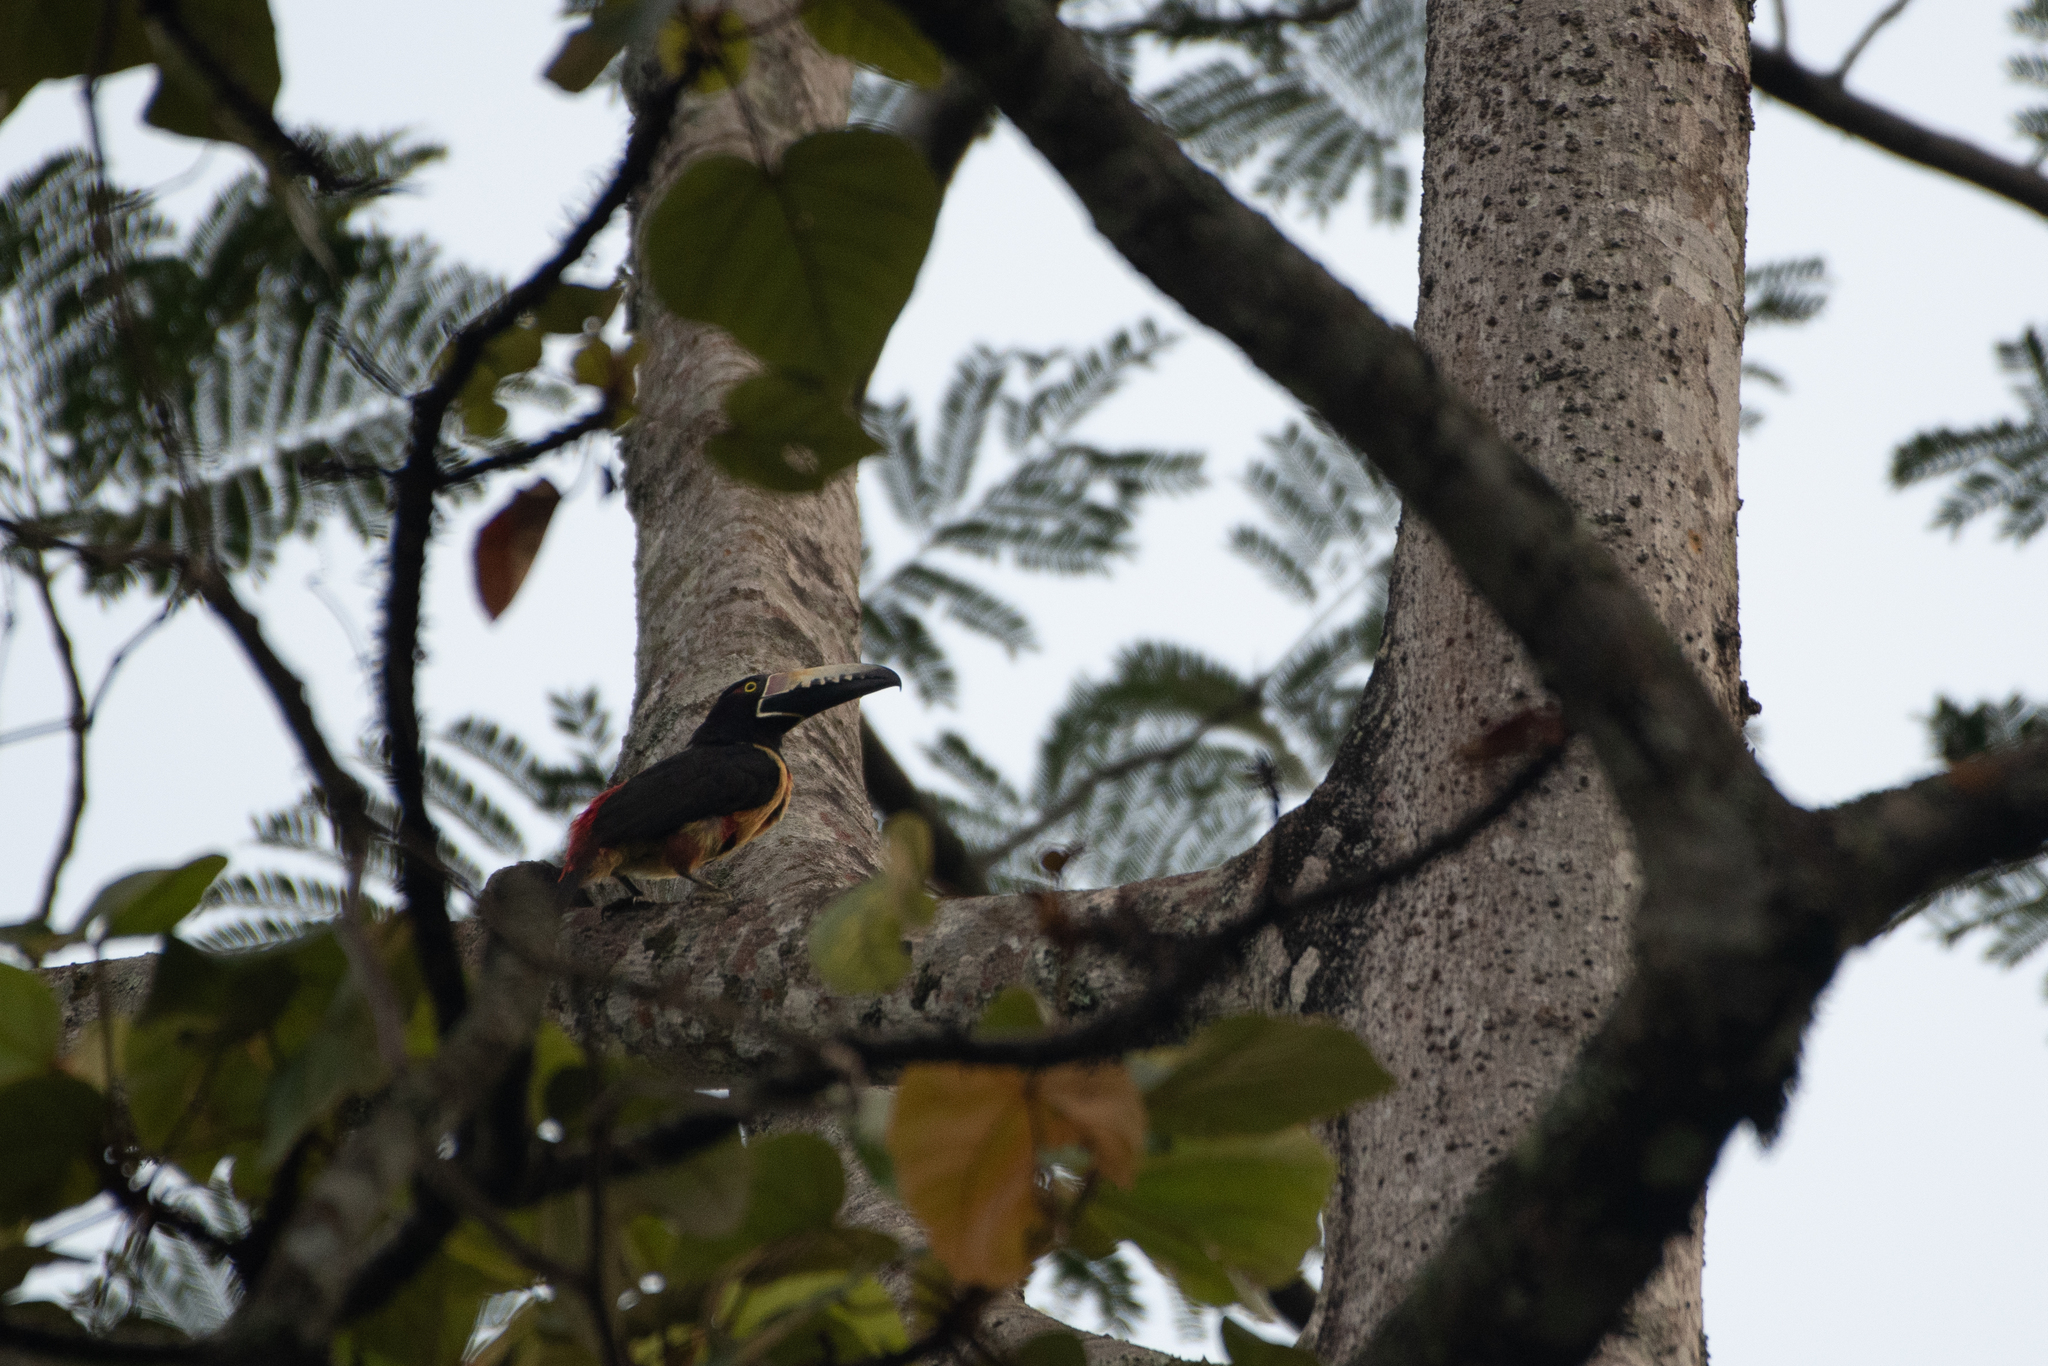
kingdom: Animalia
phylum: Chordata
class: Aves
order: Piciformes
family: Ramphastidae
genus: Pteroglossus
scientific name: Pteroglossus torquatus
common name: Collared aracari
